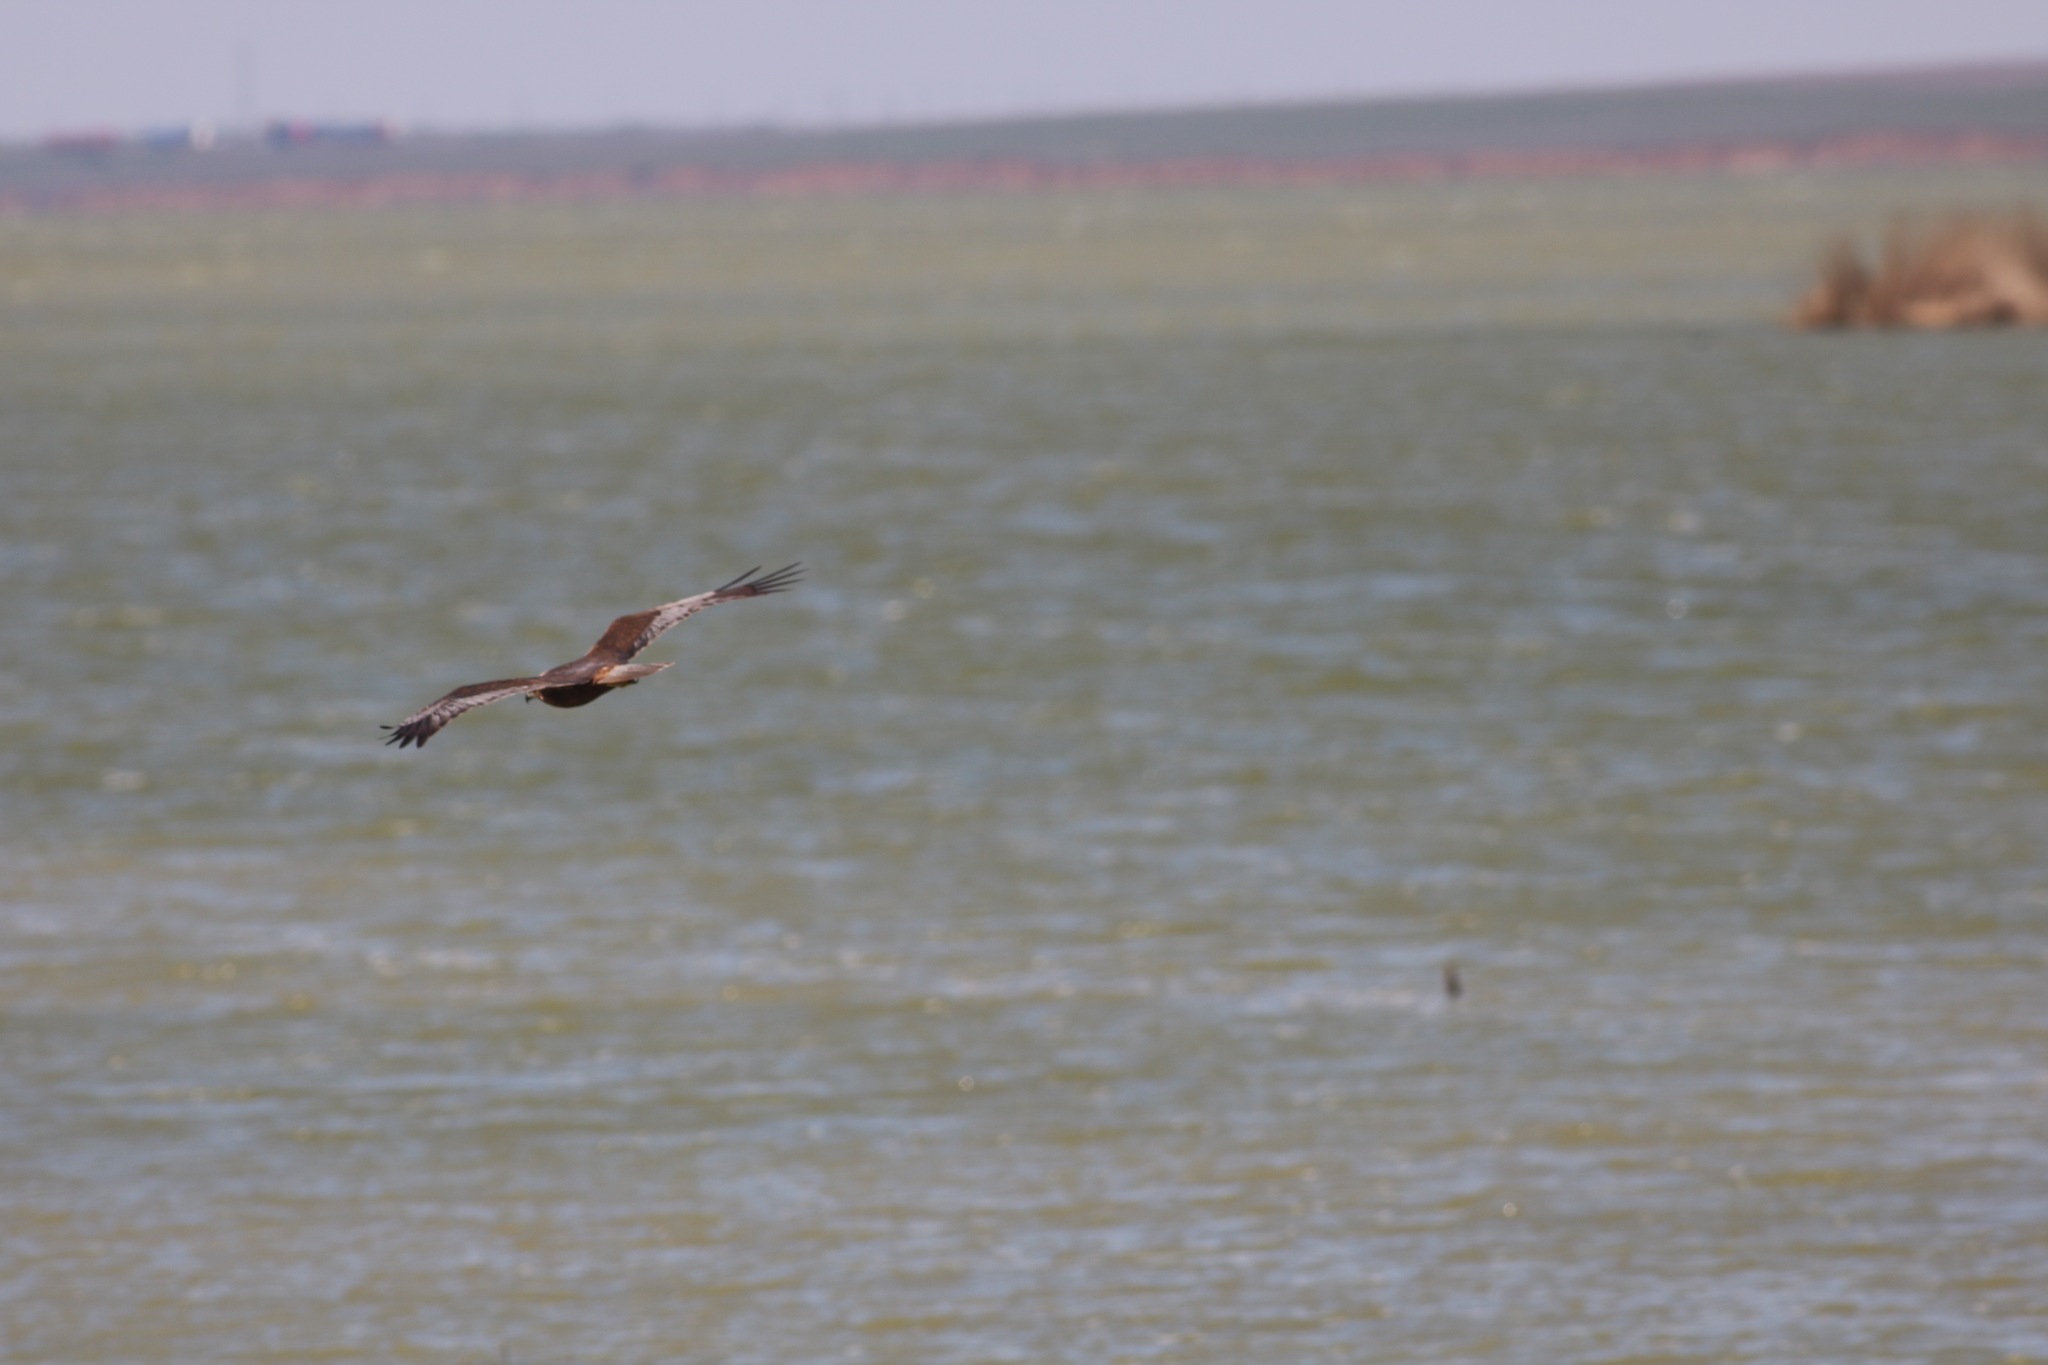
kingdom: Animalia
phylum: Chordata
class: Aves
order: Accipitriformes
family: Accipitridae
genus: Circus
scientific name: Circus aeruginosus
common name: Western marsh harrier
